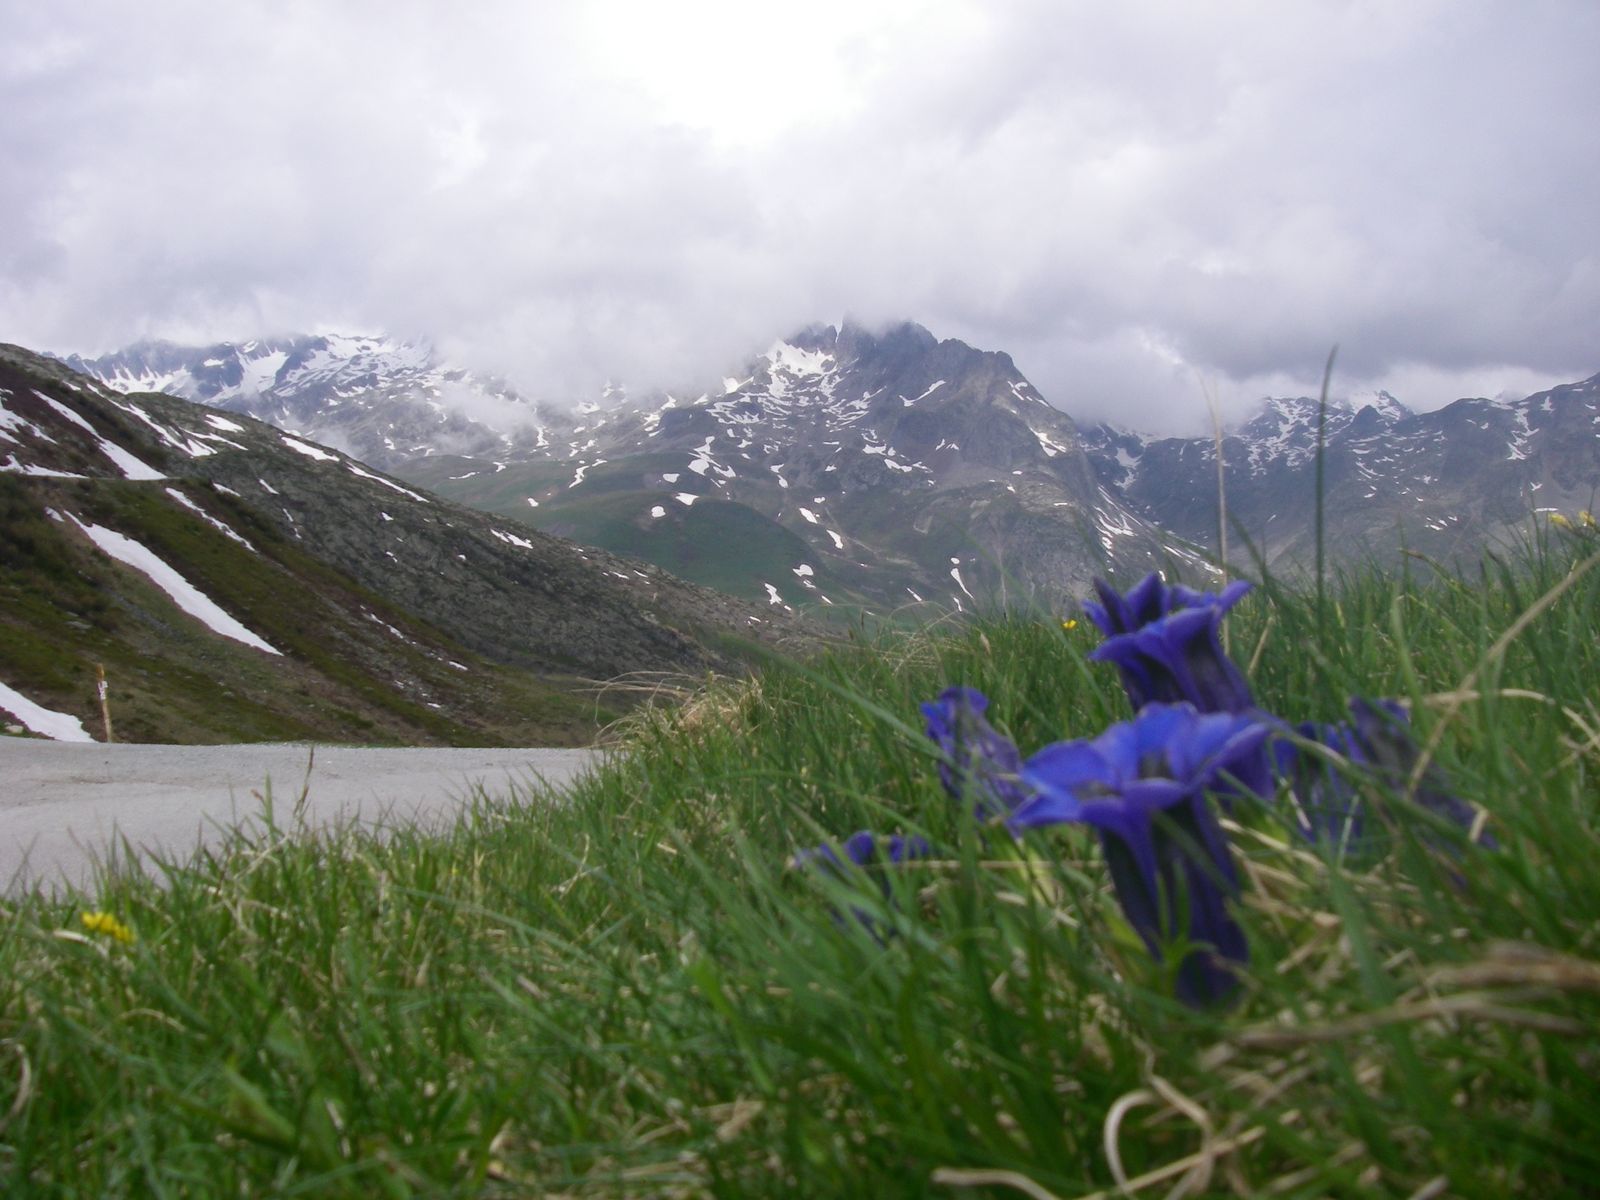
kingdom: Plantae
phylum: Tracheophyta
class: Magnoliopsida
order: Gentianales
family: Gentianaceae
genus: Gentiana
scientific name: Gentiana acaulis
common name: Trumpet gentian
